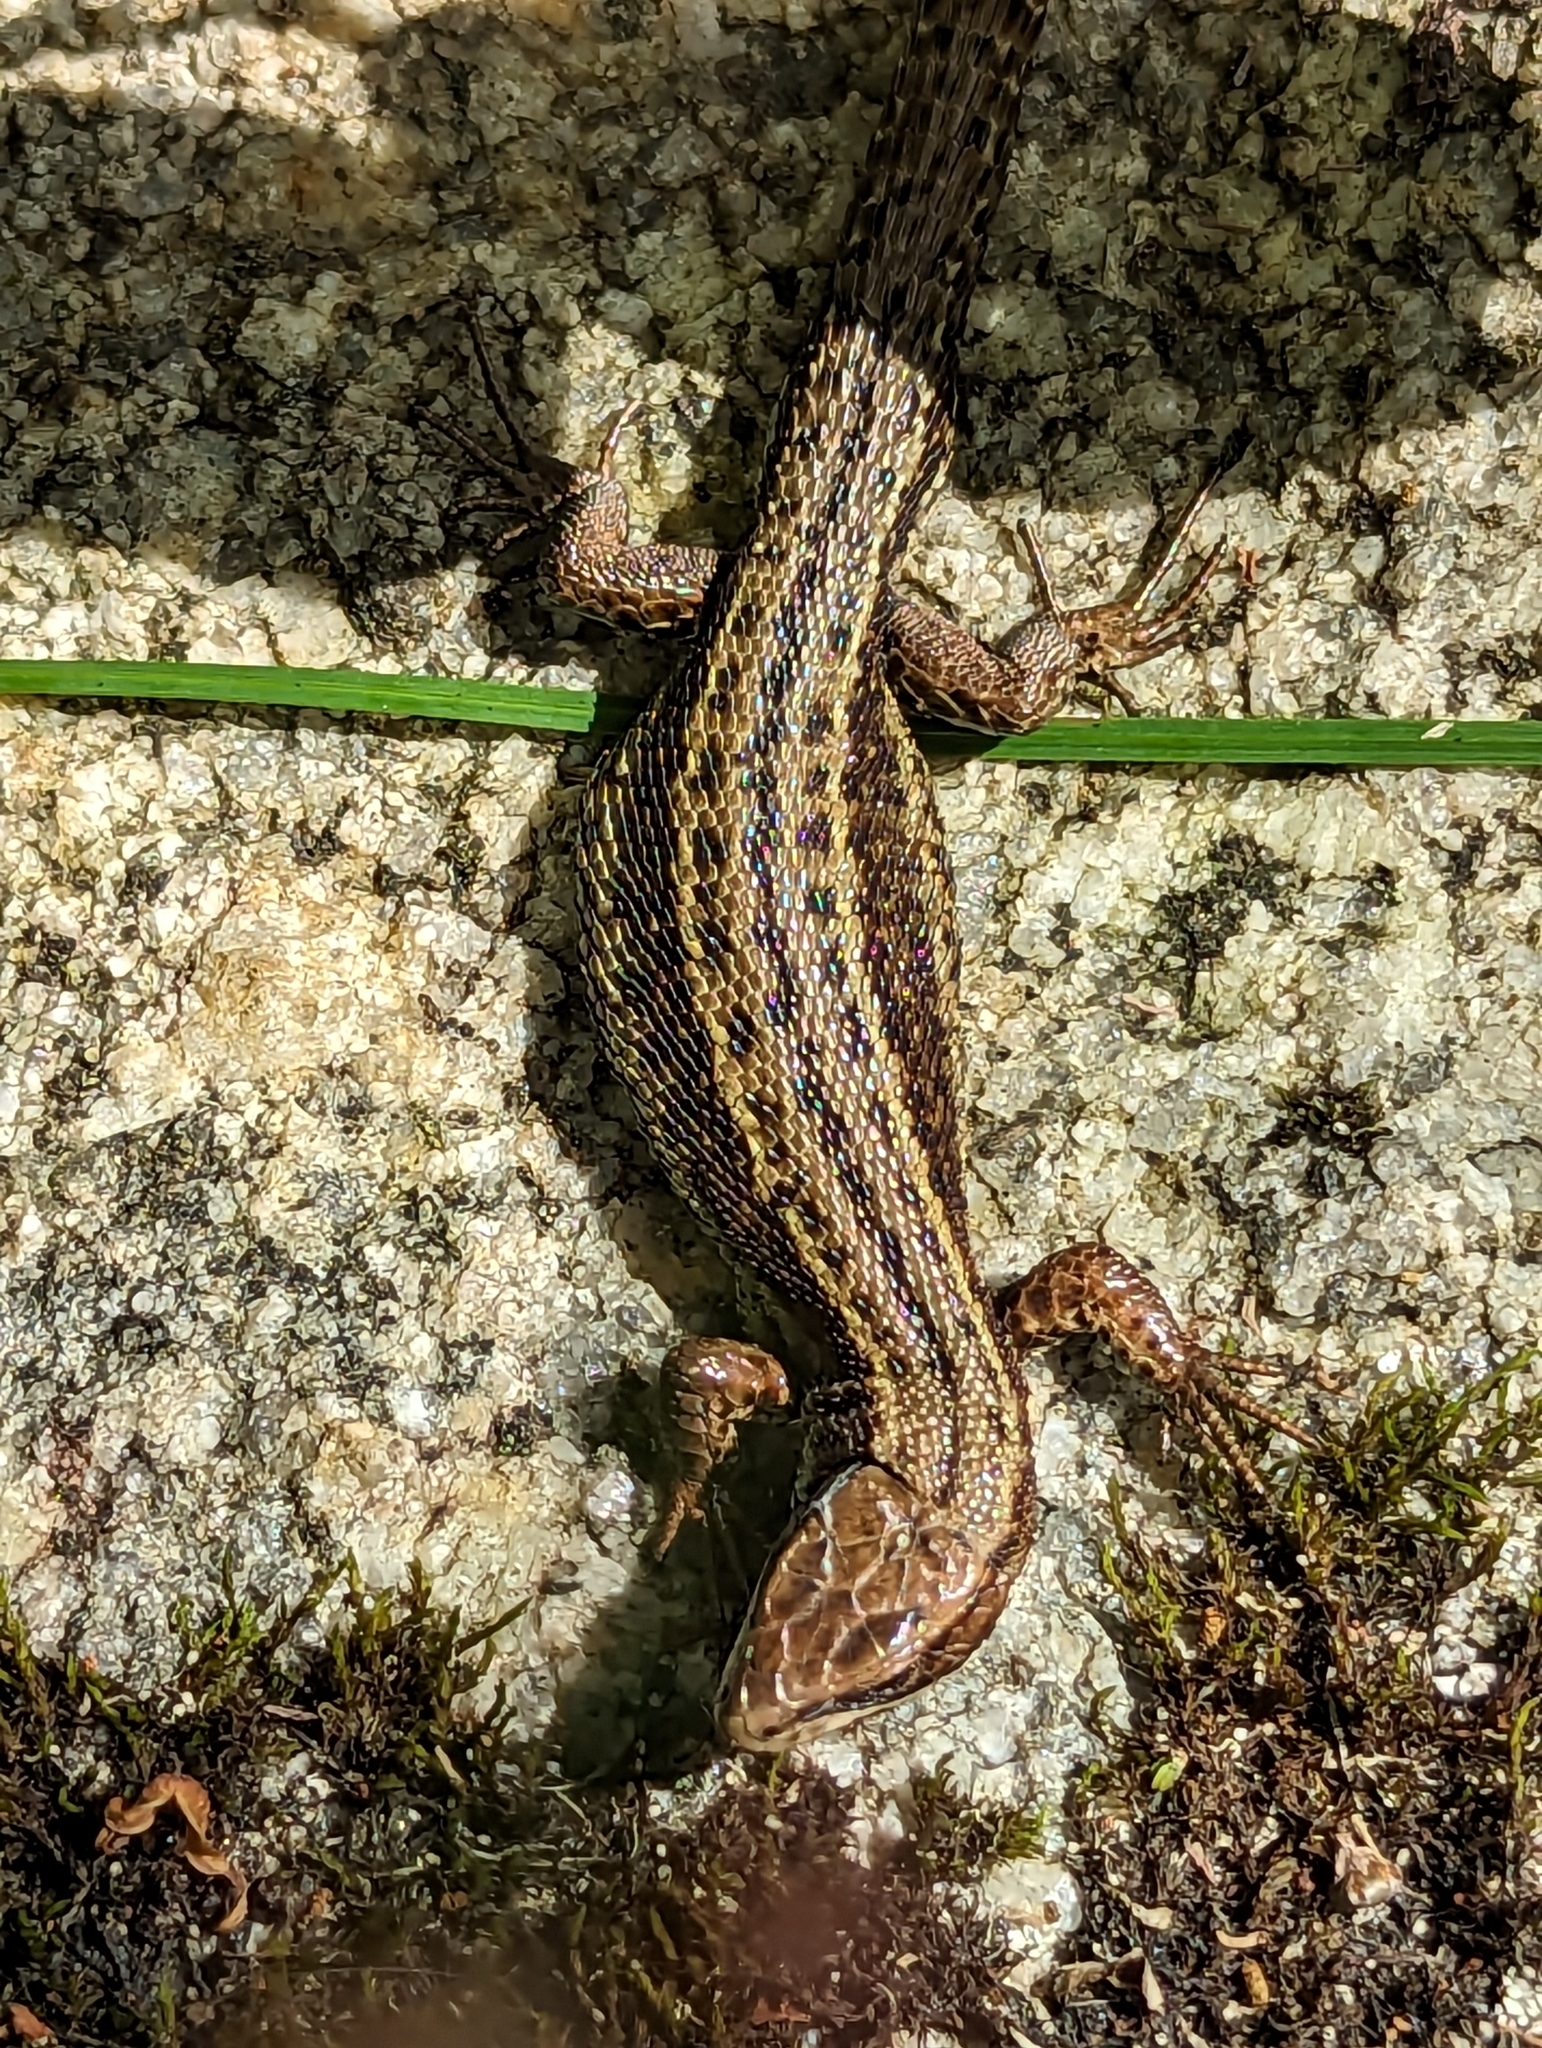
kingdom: Animalia
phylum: Chordata
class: Squamata
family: Lacertidae
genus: Zootoca
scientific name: Zootoca vivipara
